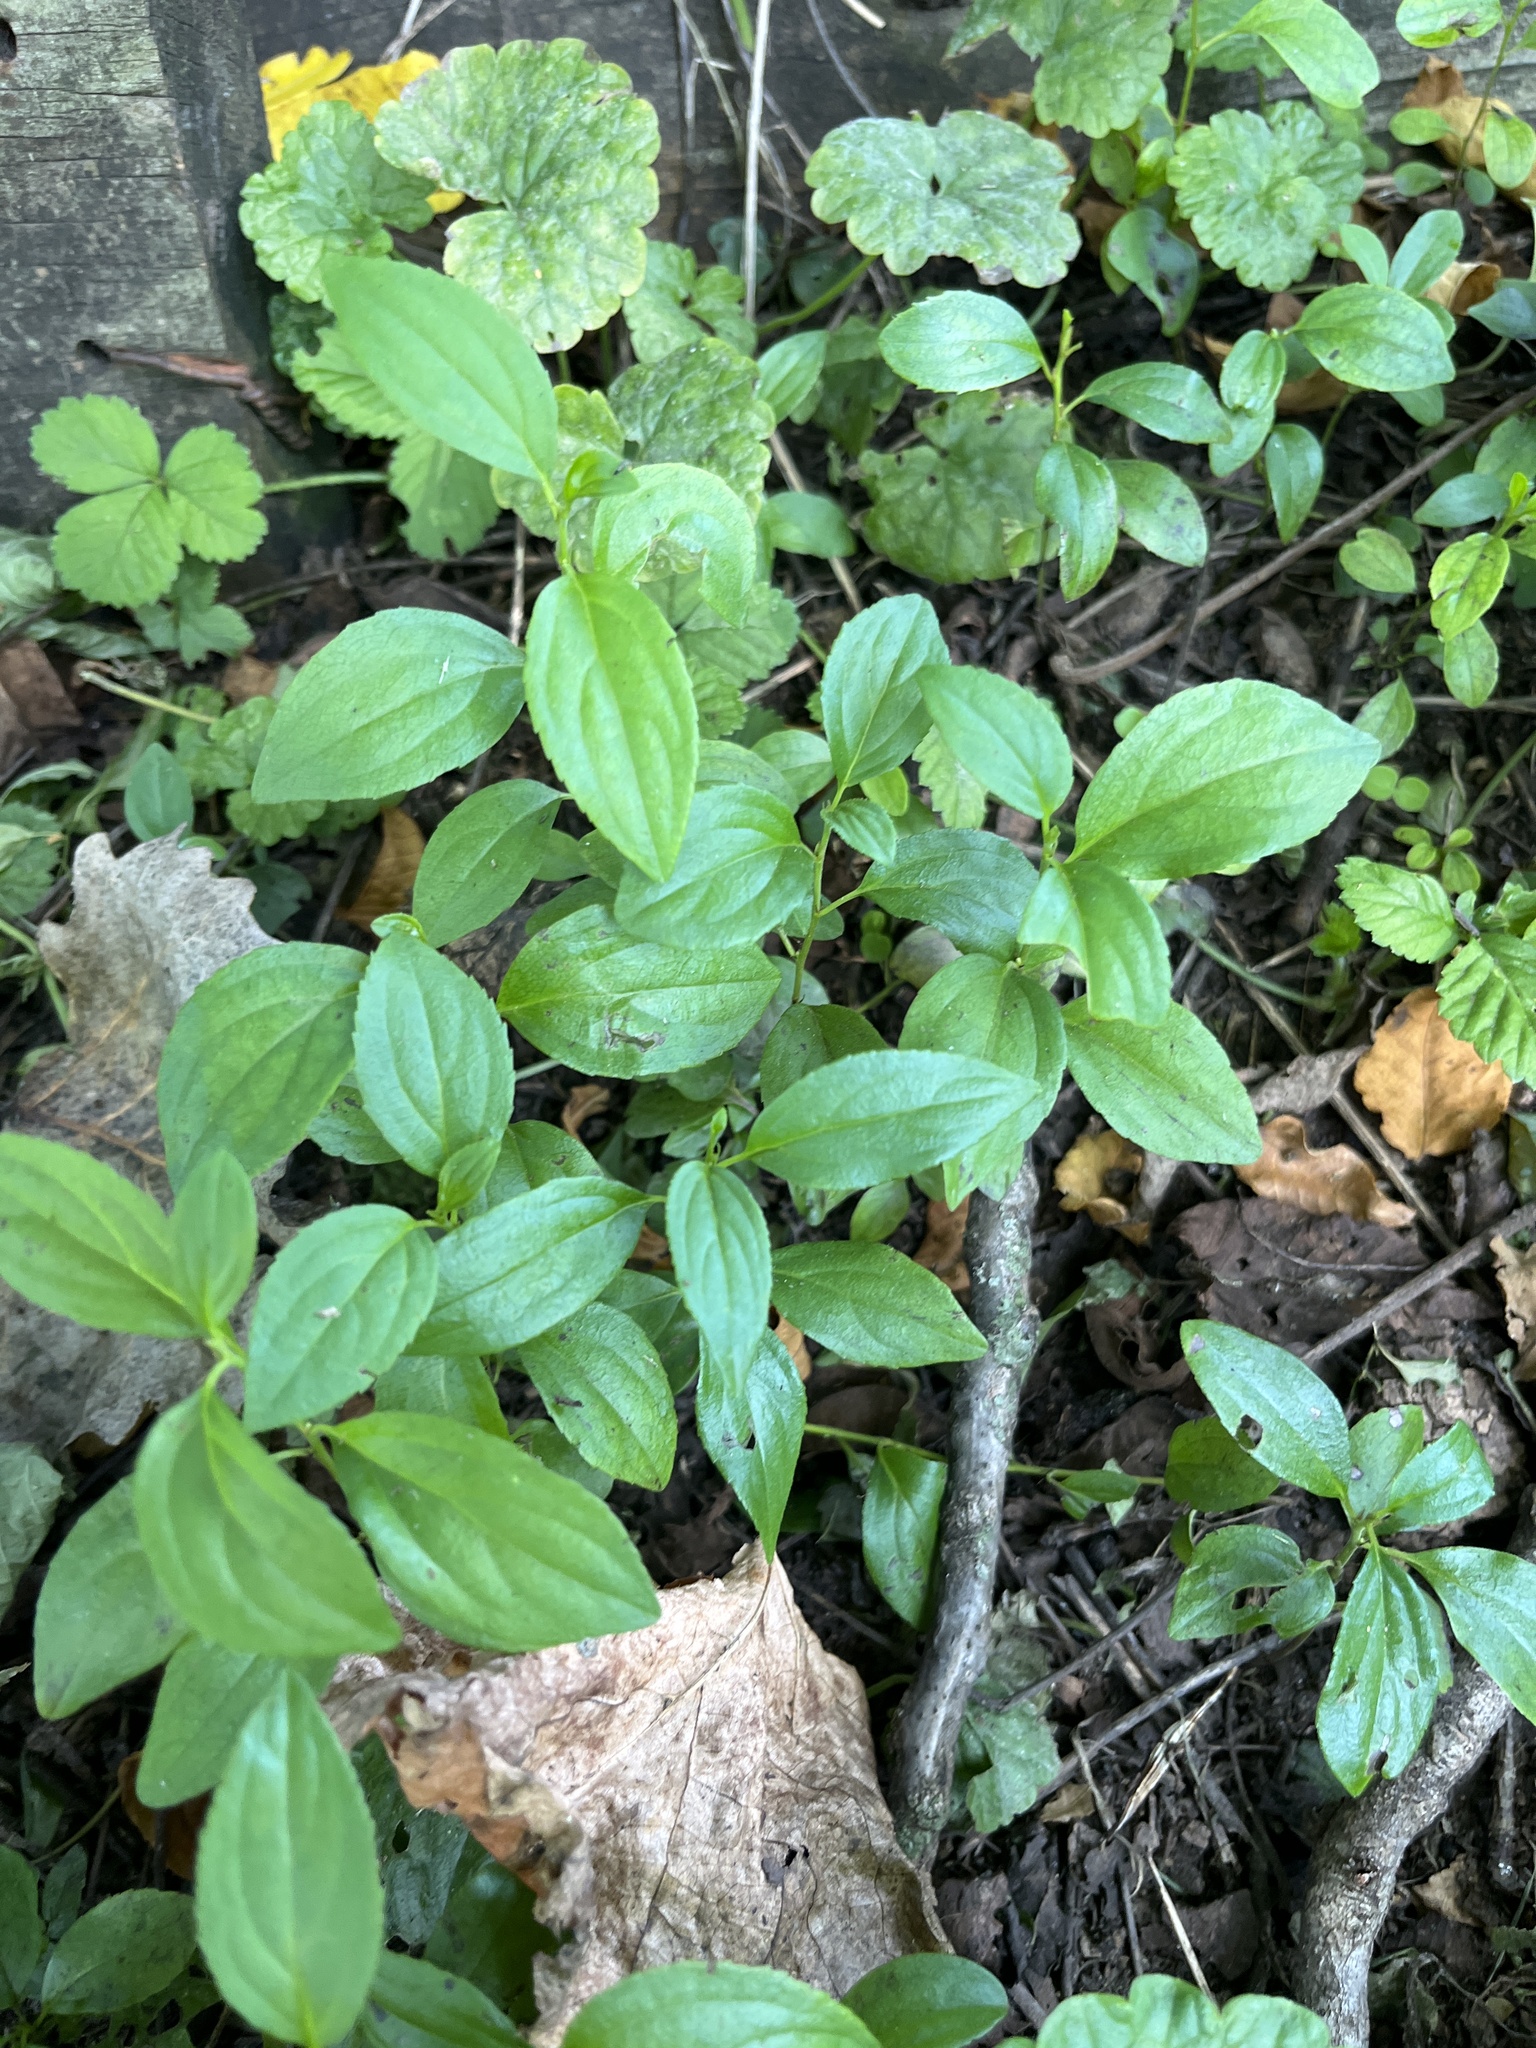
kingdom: Plantae
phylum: Tracheophyta
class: Magnoliopsida
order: Rosales
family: Rhamnaceae
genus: Rhamnus
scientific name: Rhamnus cathartica
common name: Common buckthorn
